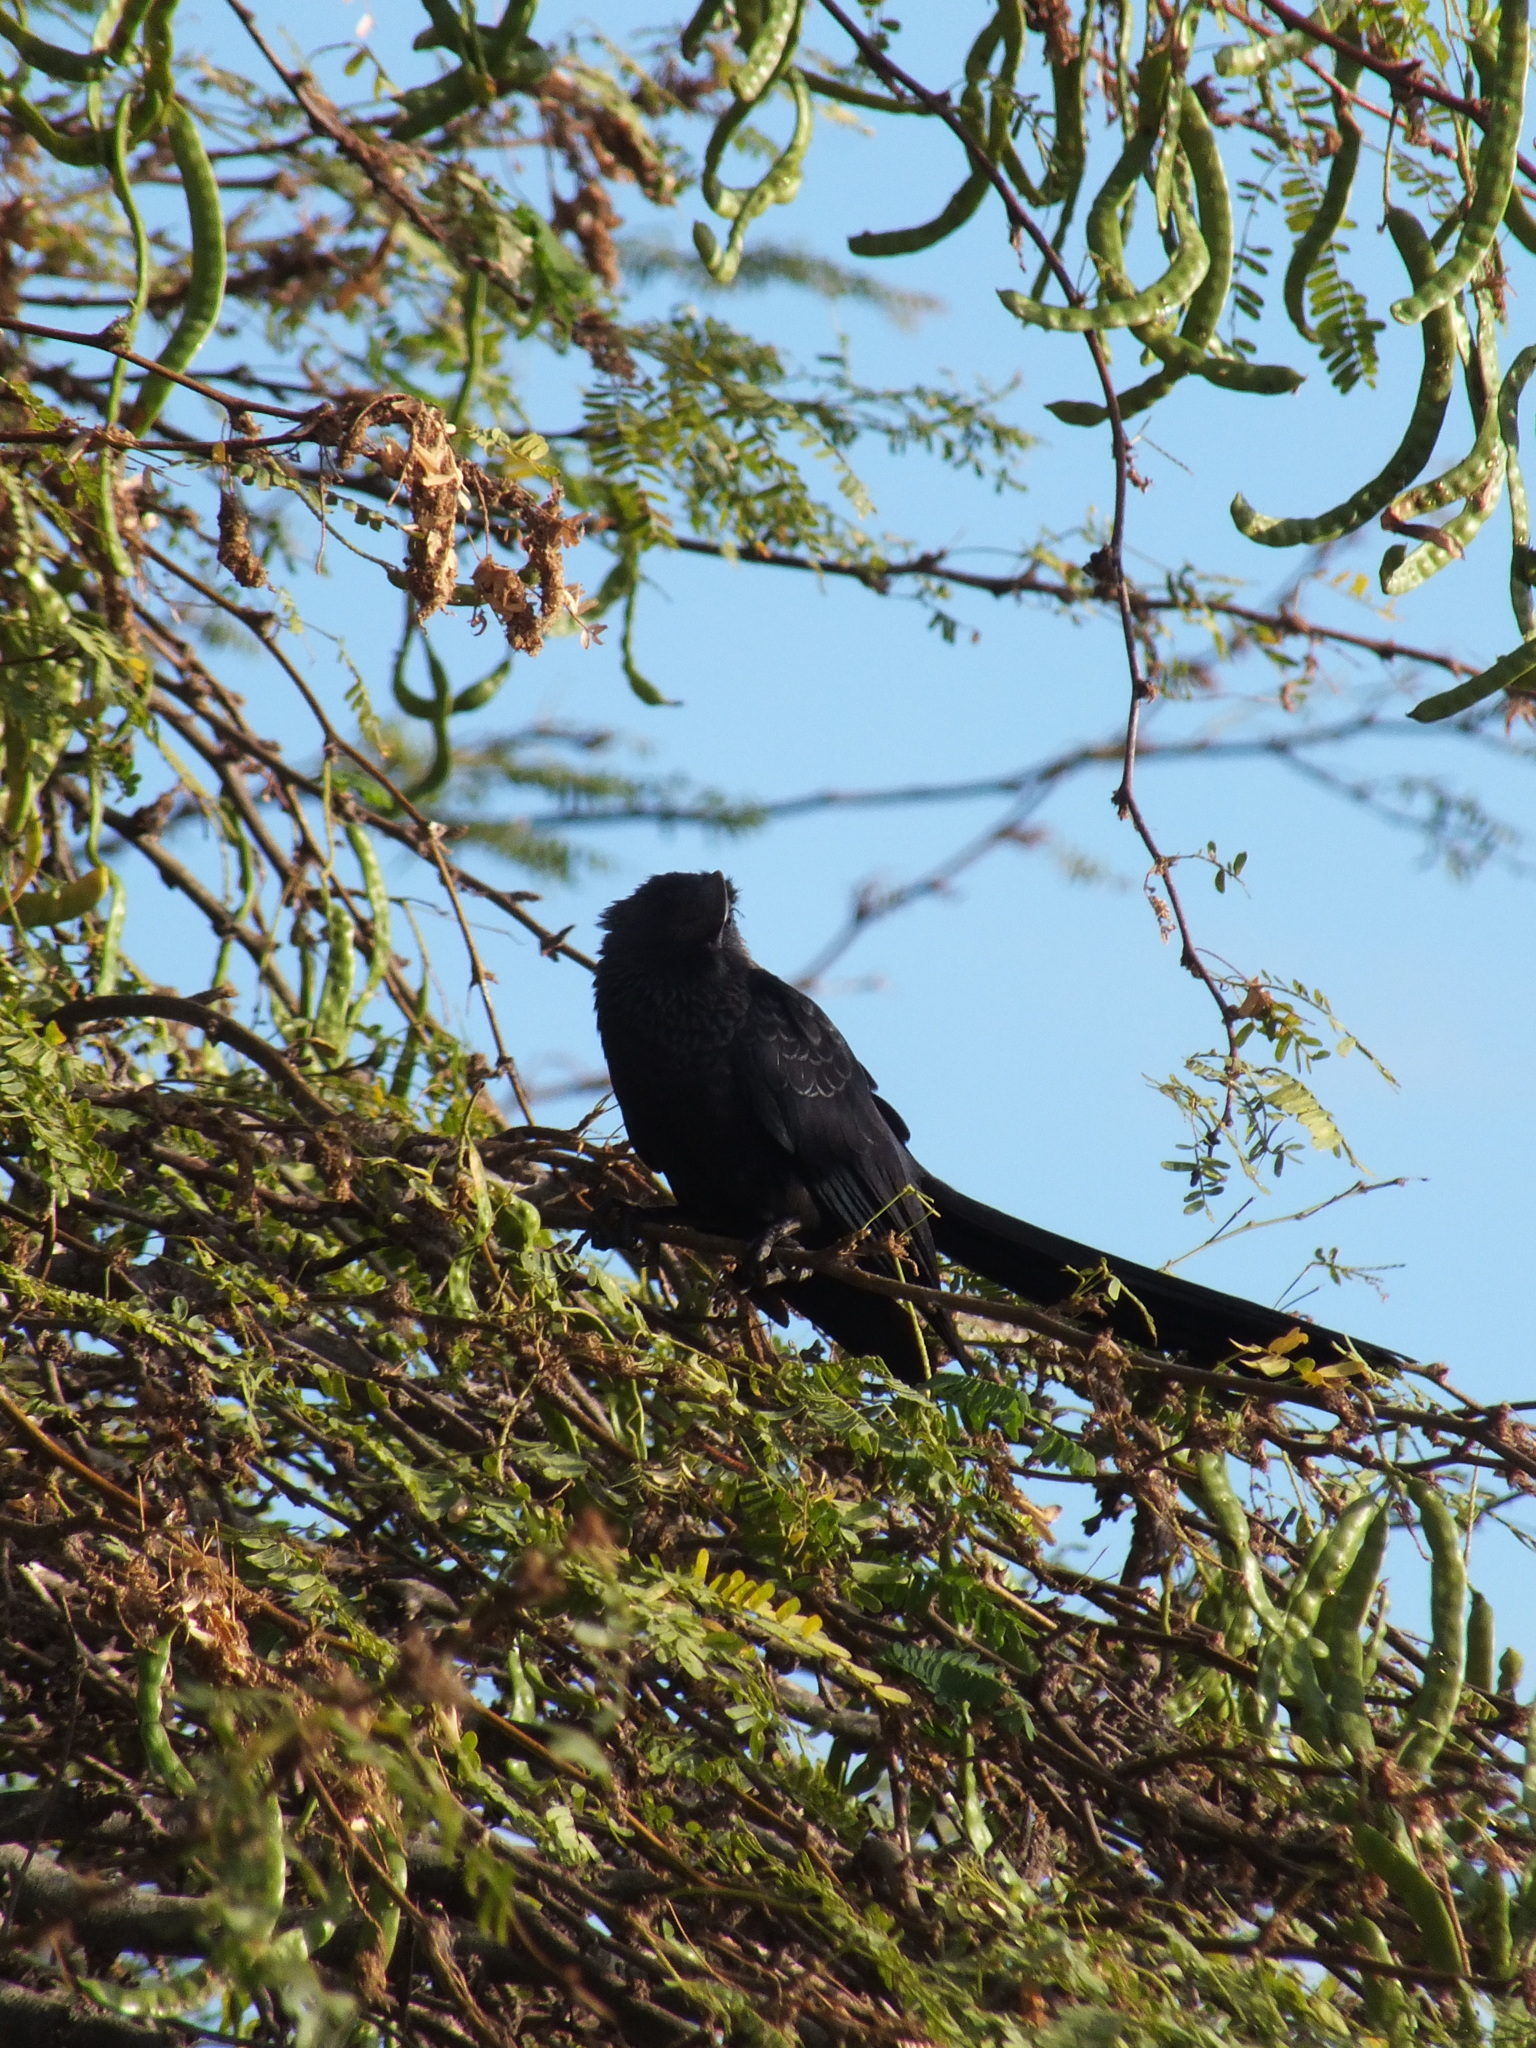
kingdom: Animalia
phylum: Chordata
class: Aves
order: Cuculiformes
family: Cuculidae
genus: Crotophaga
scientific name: Crotophaga ani
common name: Smooth-billed ani
